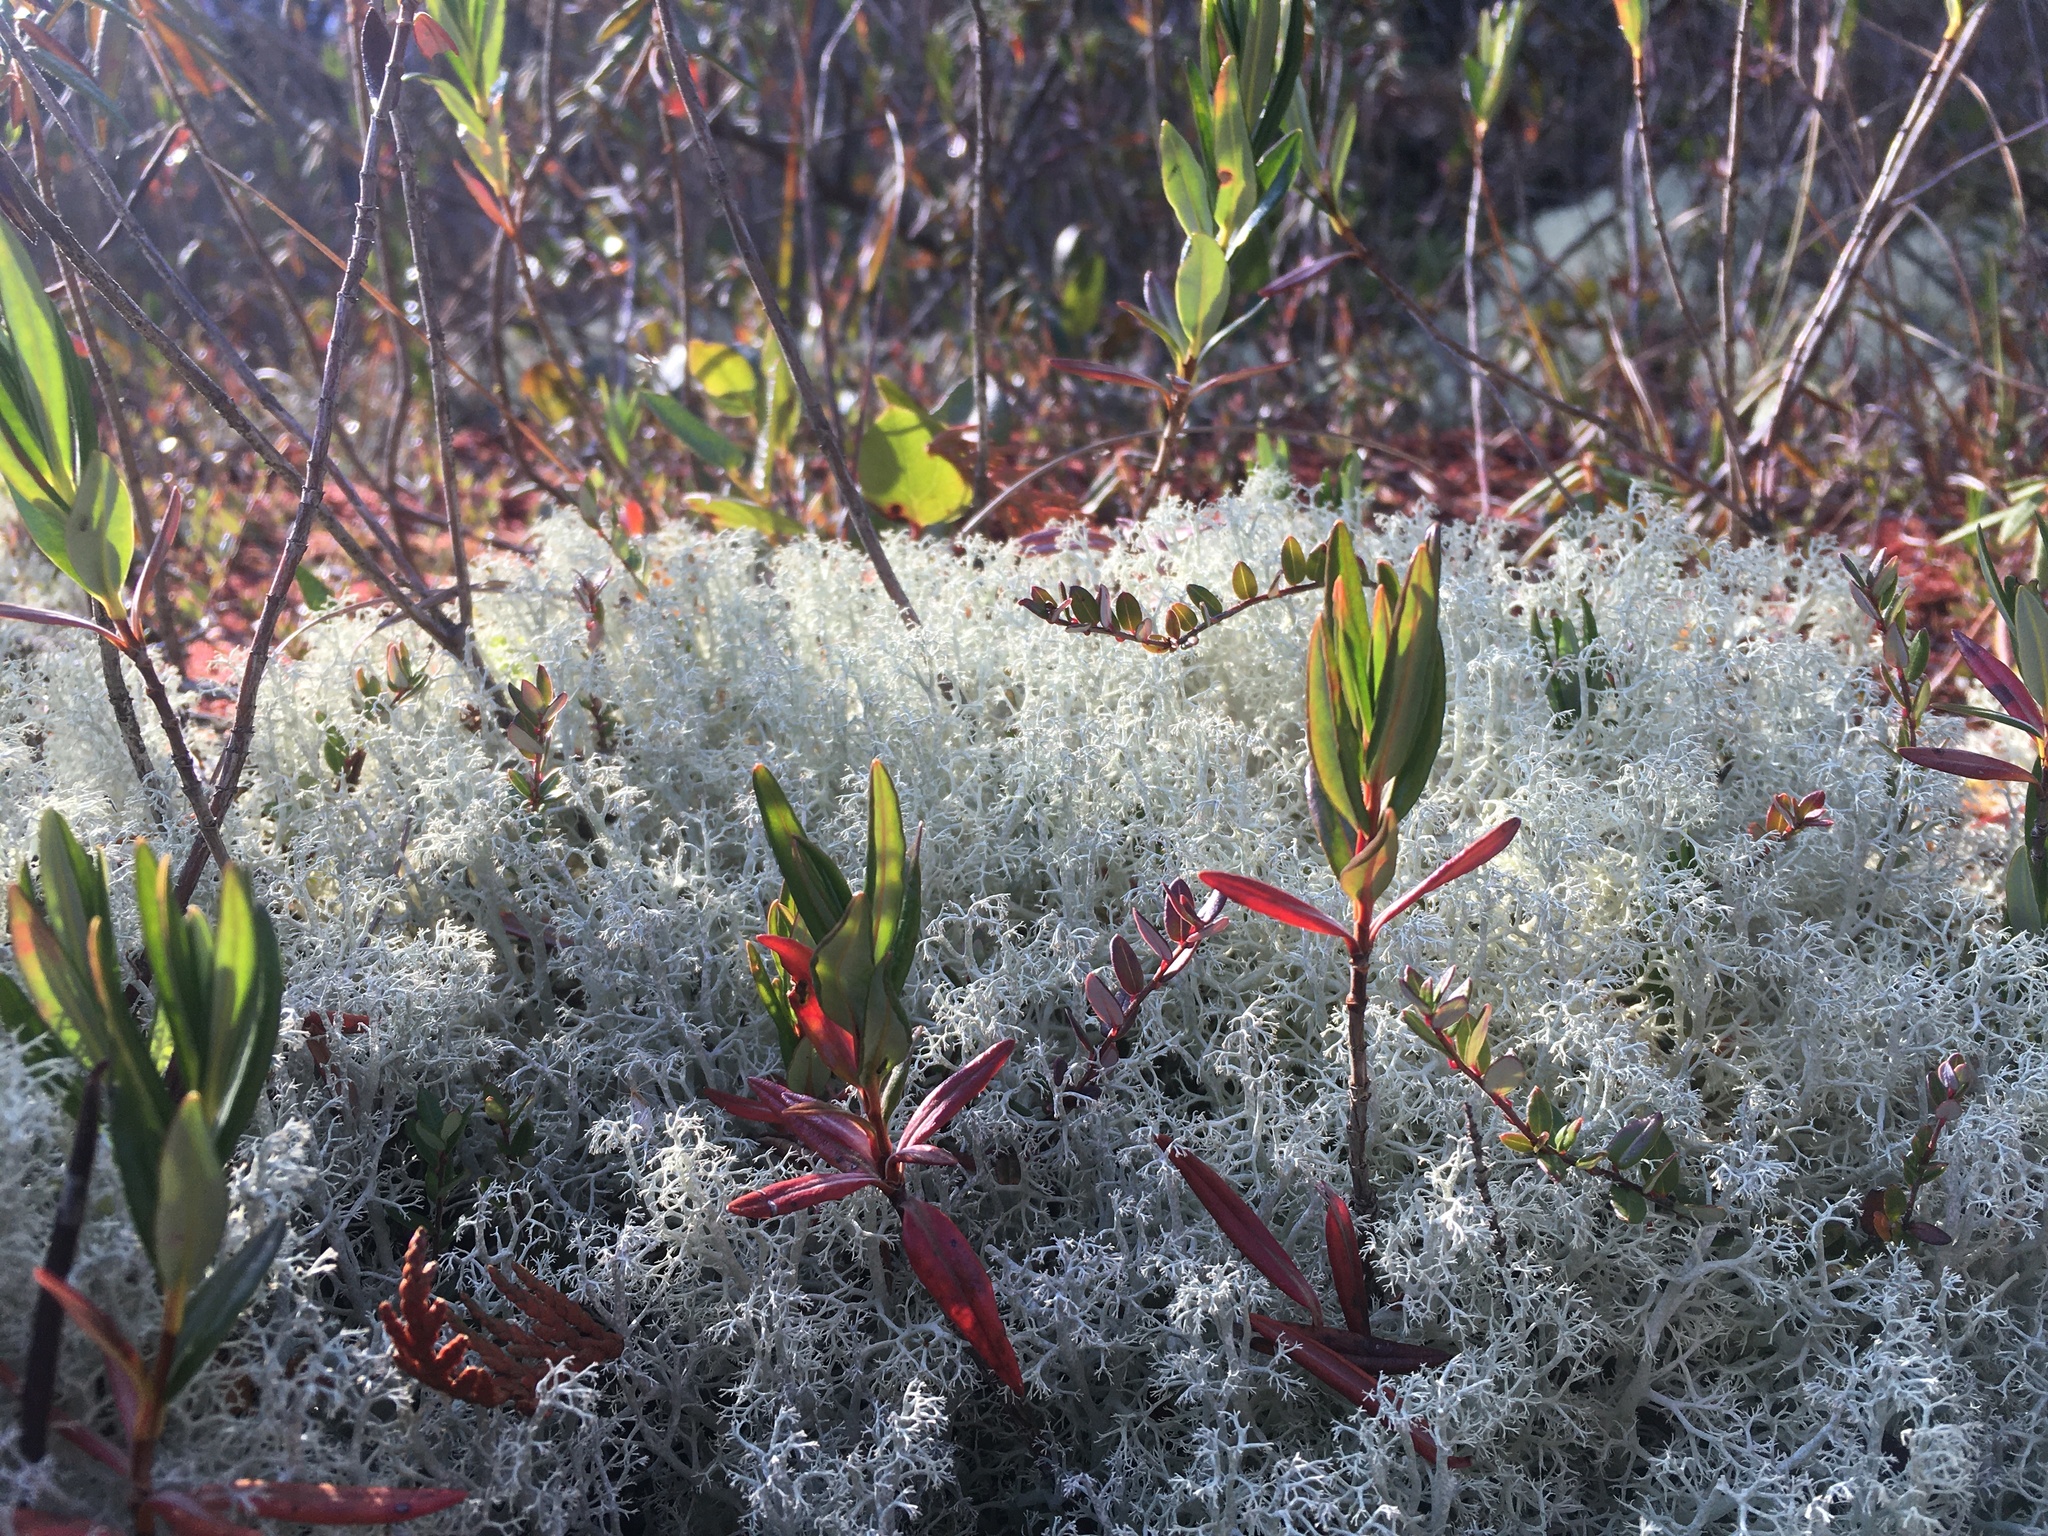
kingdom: Plantae
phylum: Tracheophyta
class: Magnoliopsida
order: Ericales
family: Ericaceae
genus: Kalmia
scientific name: Kalmia microphylla
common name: Alpine bog laurel
